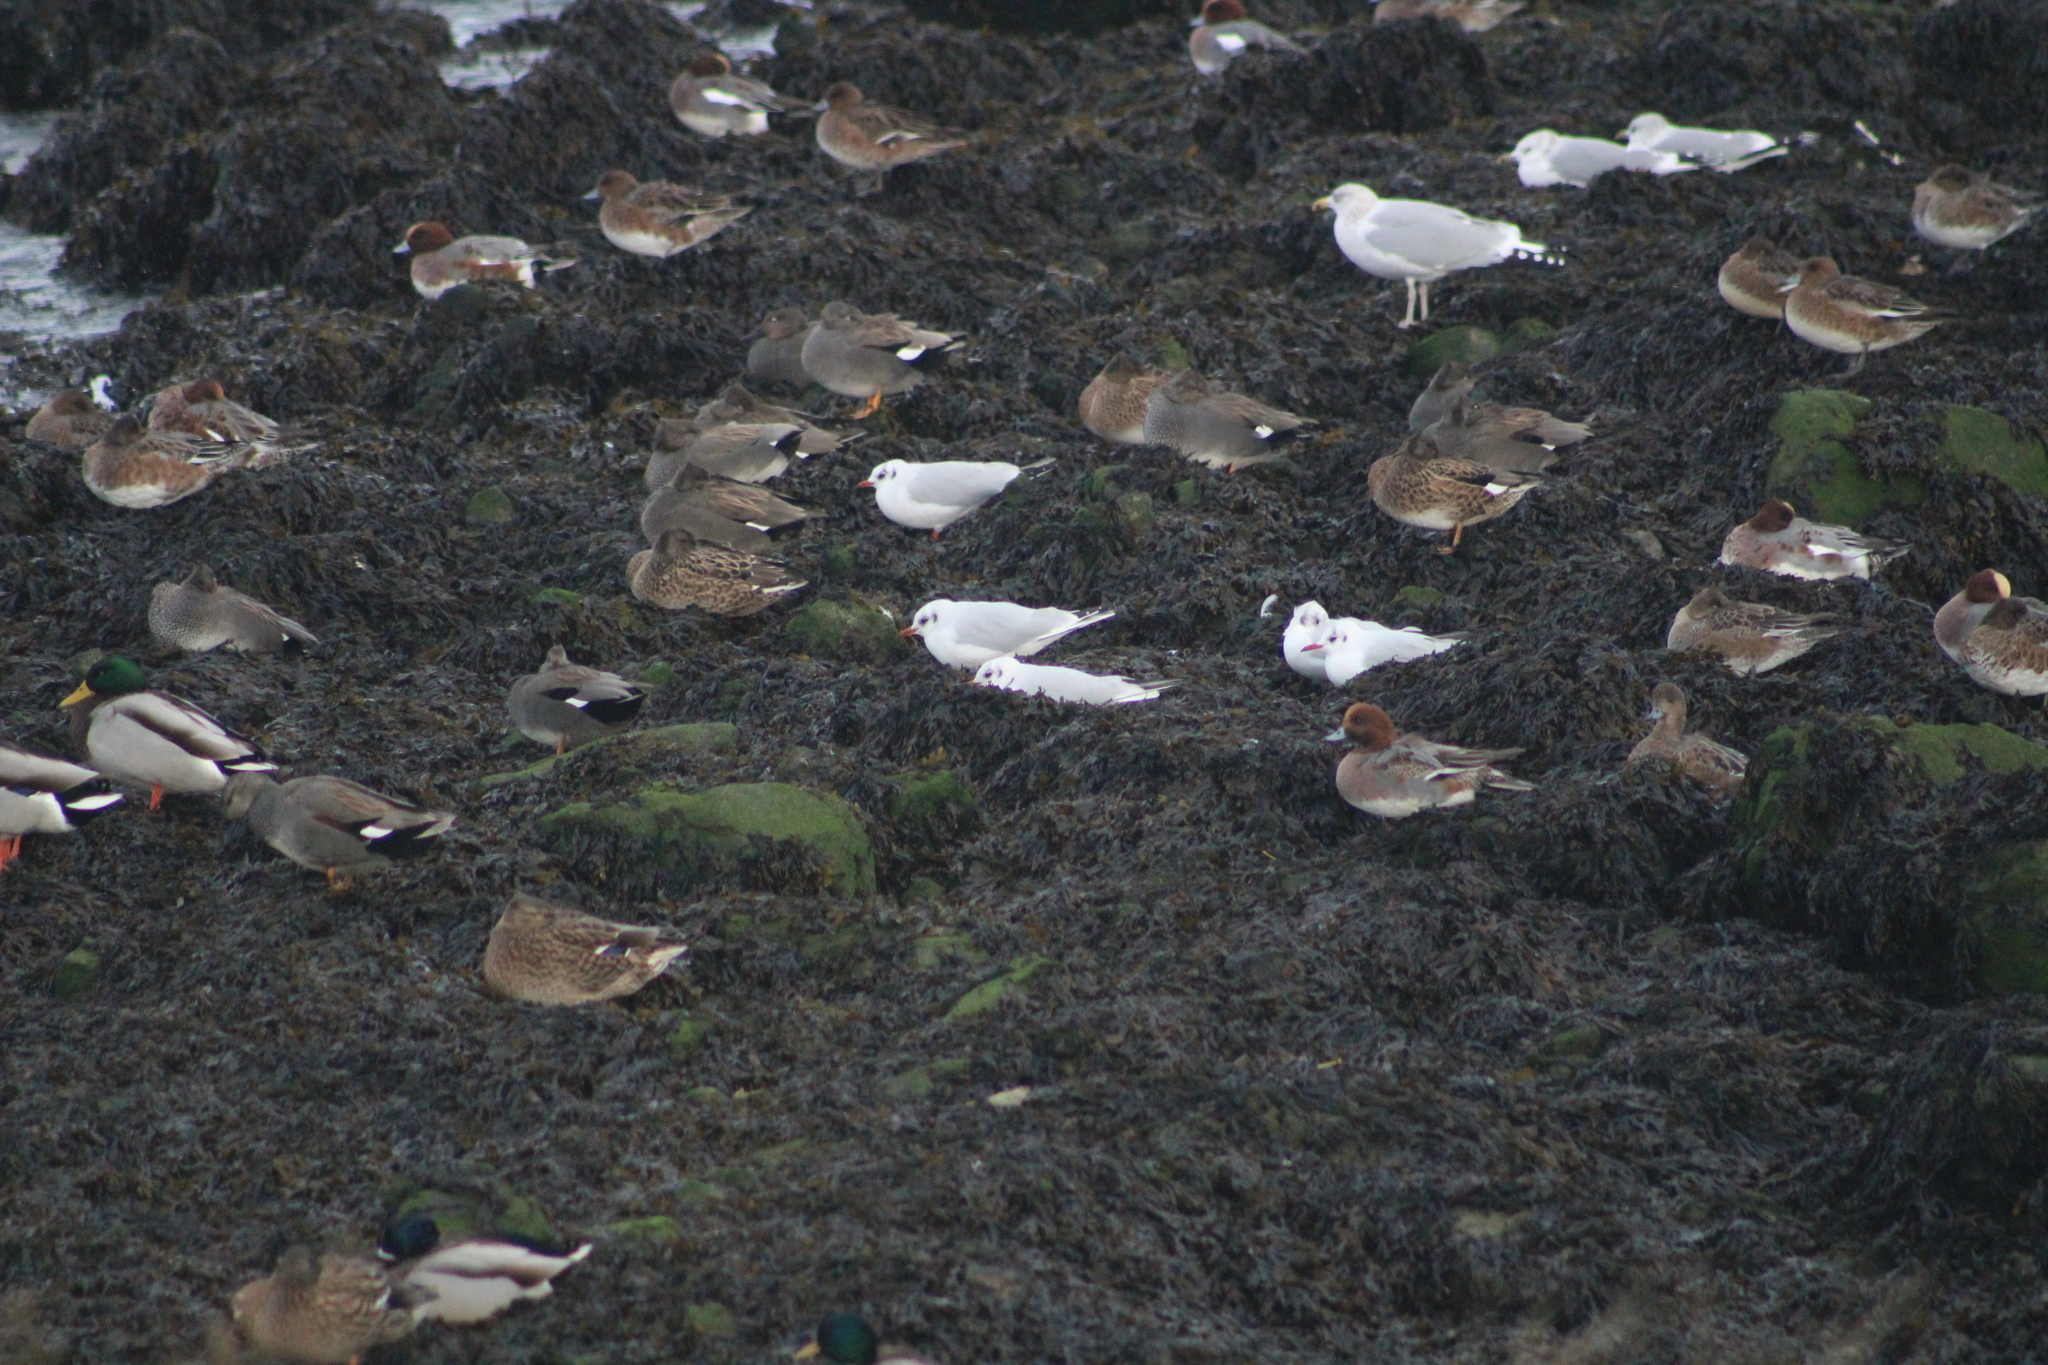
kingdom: Animalia
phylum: Chordata
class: Aves
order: Charadriiformes
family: Laridae
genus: Chroicocephalus
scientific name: Chroicocephalus ridibundus
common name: Black-headed gull
